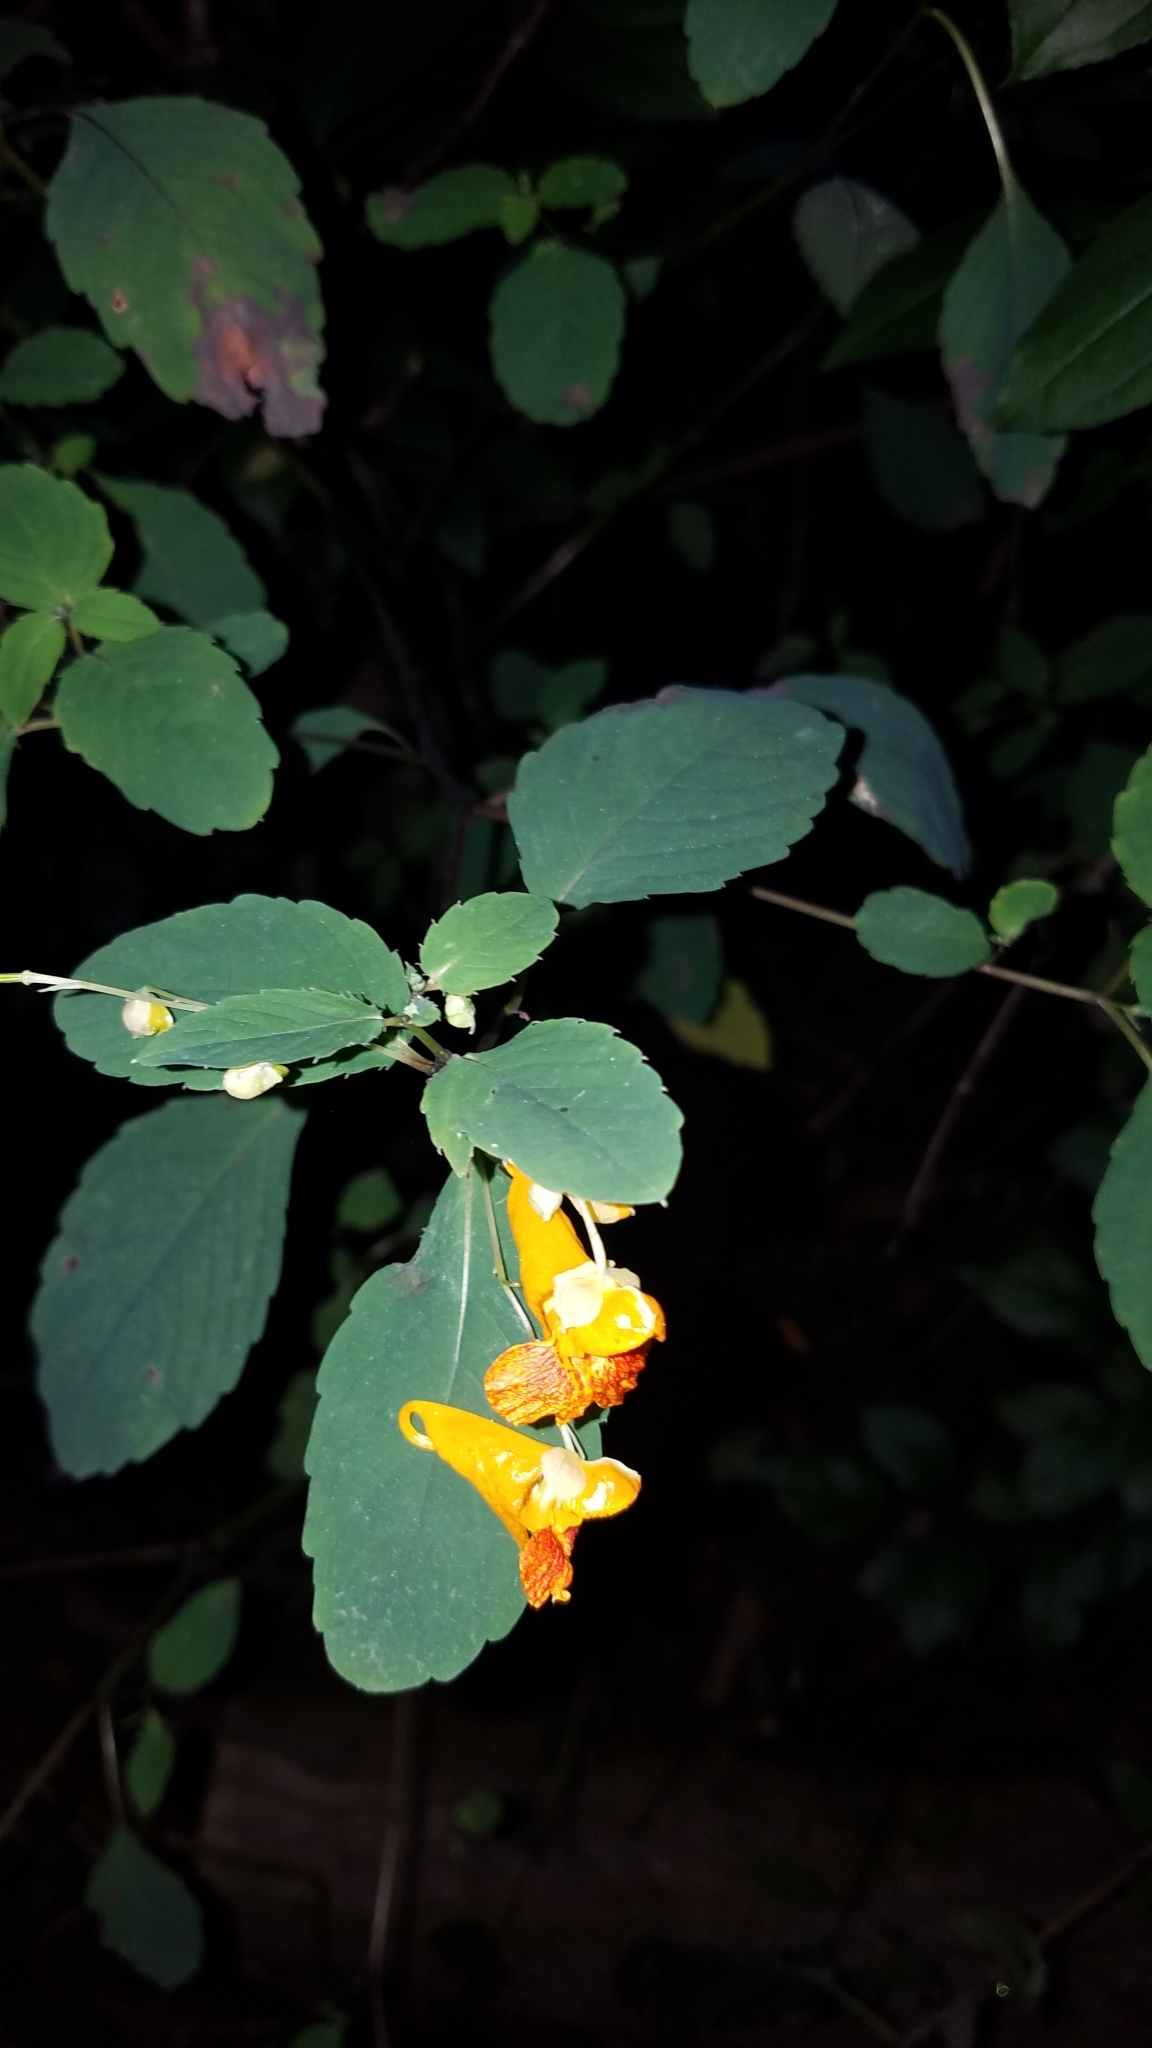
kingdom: Plantae
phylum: Tracheophyta
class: Magnoliopsida
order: Ericales
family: Balsaminaceae
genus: Impatiens
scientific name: Impatiens capensis
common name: Orange balsam
